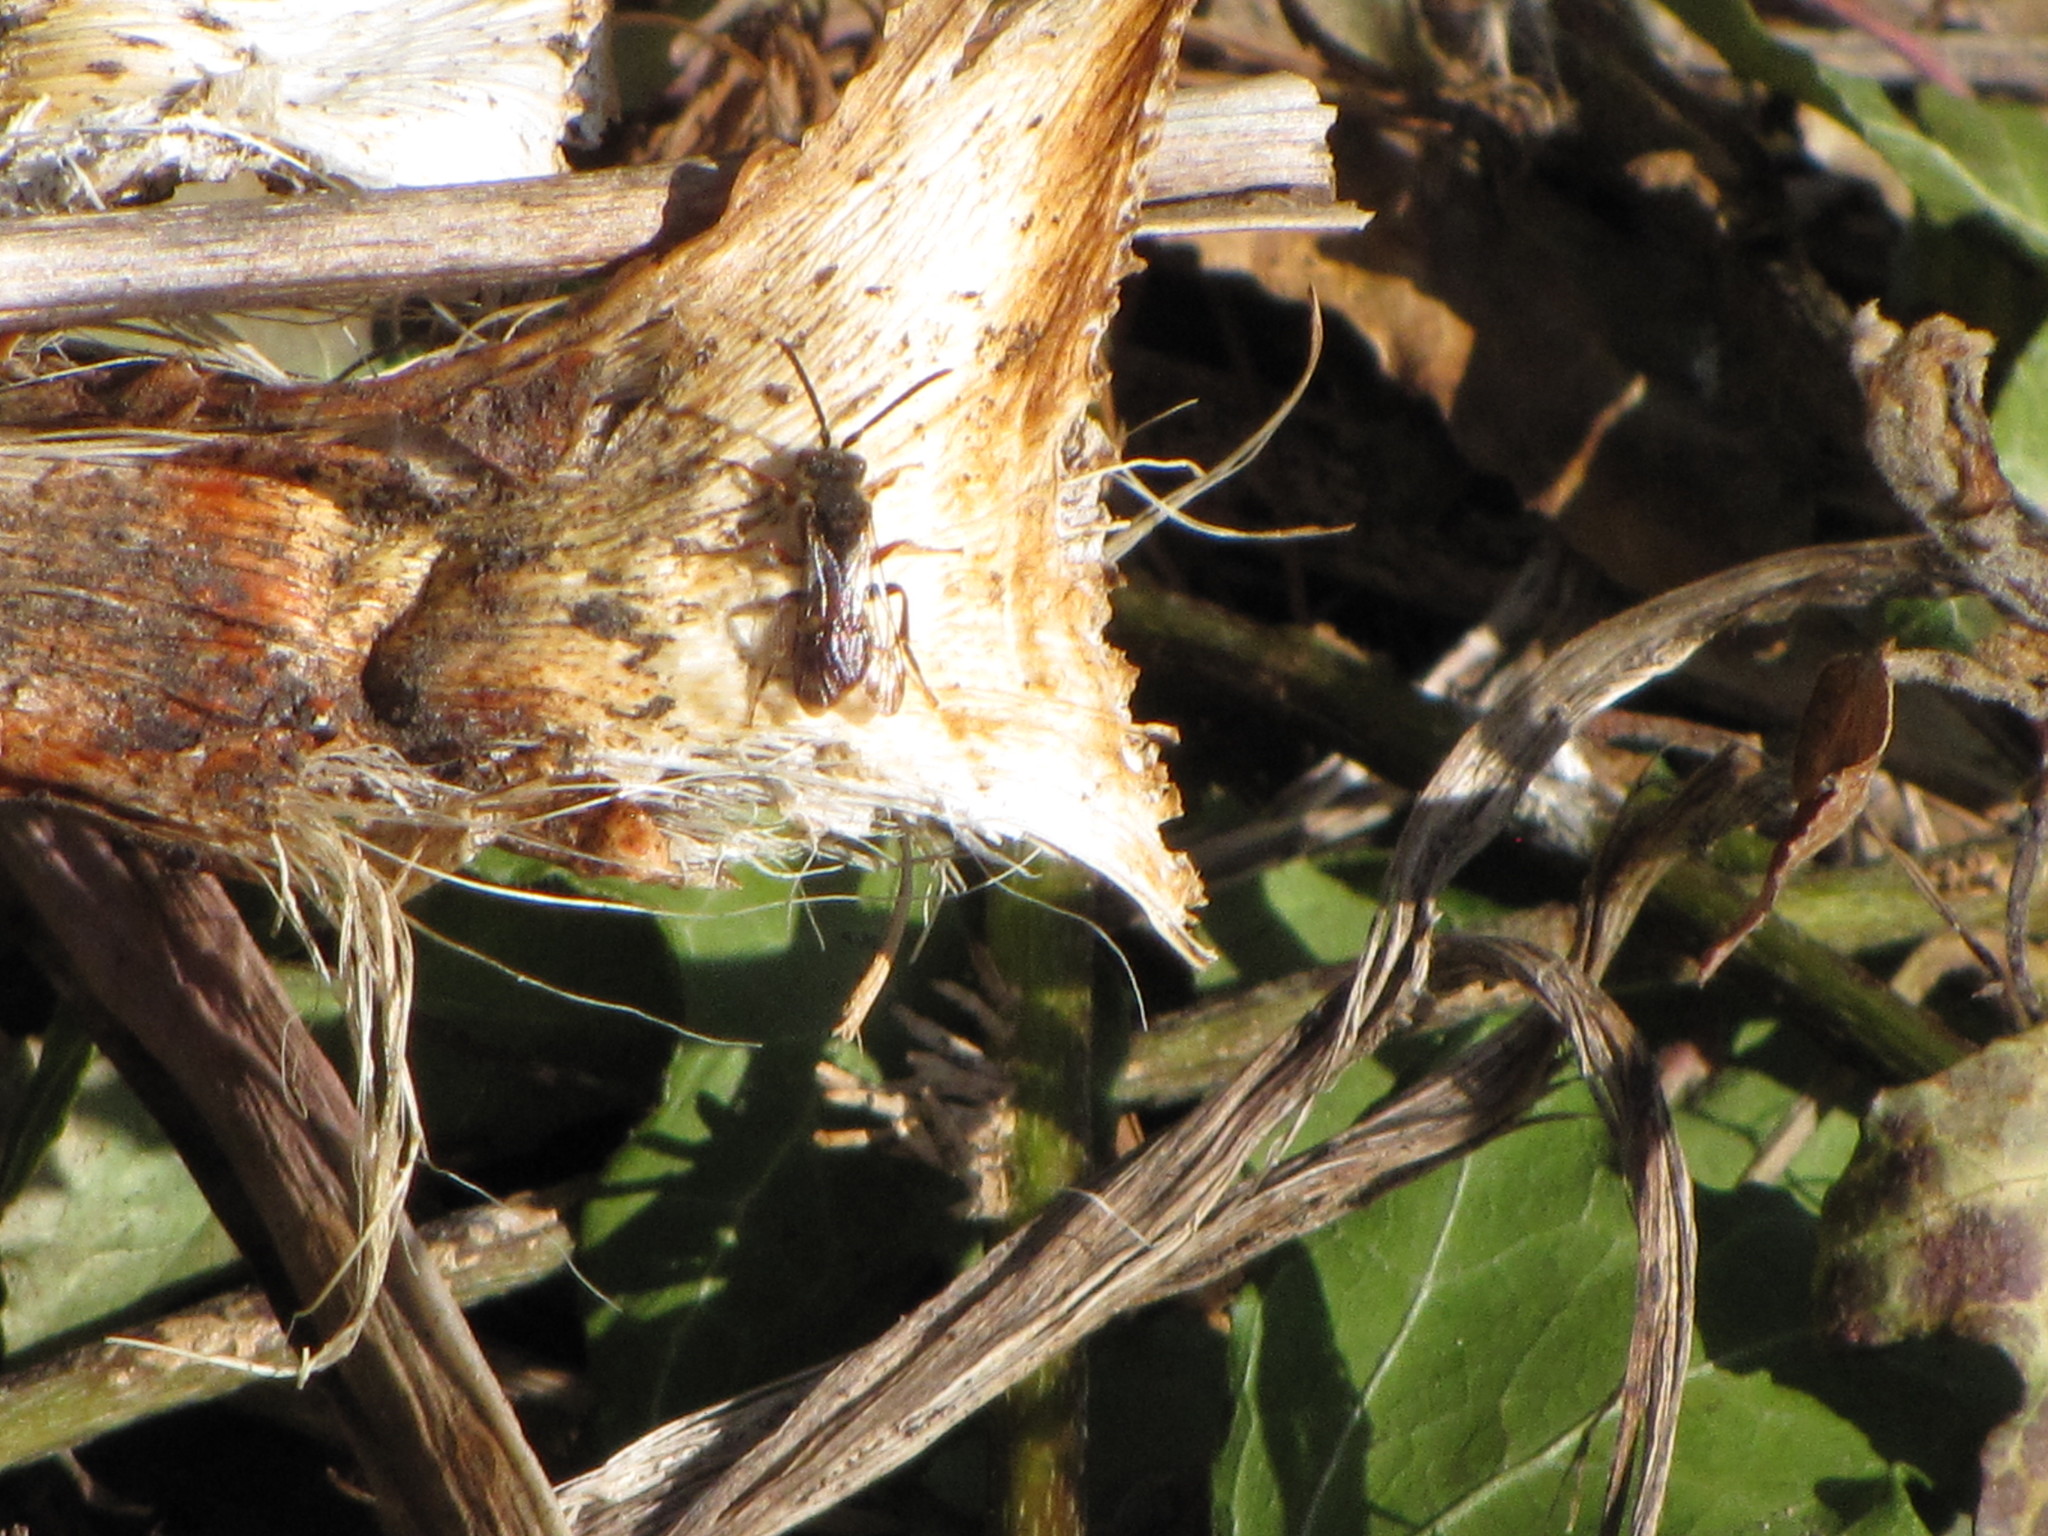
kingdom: Animalia
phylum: Arthropoda
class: Insecta
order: Hymenoptera
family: Apidae
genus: Nomada
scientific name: Nomada
